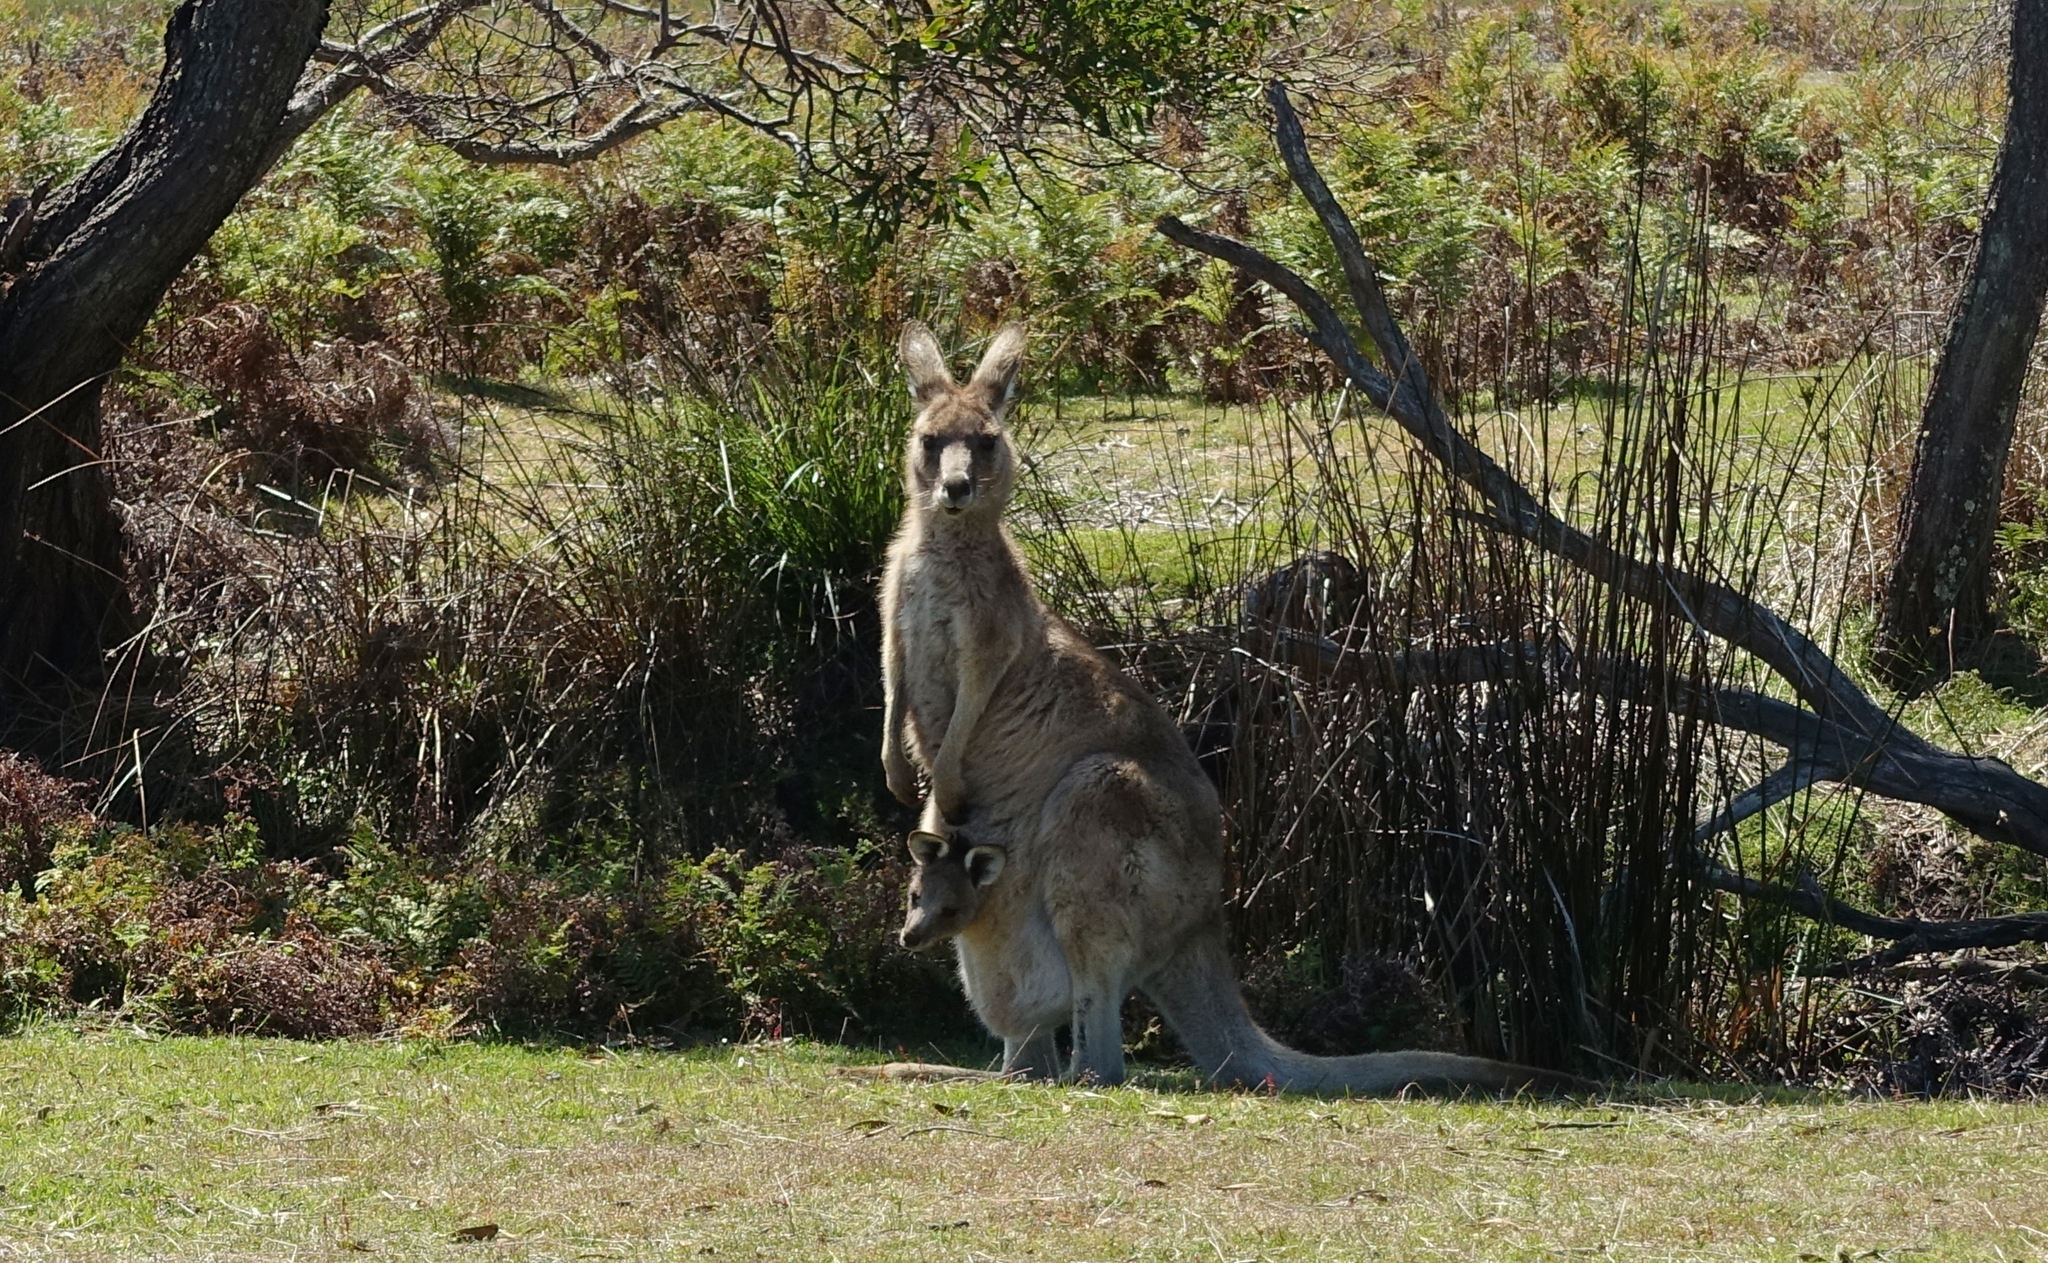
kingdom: Animalia
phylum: Chordata
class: Mammalia
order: Diprotodontia
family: Macropodidae
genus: Macropus
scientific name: Macropus giganteus
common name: Eastern grey kangaroo
